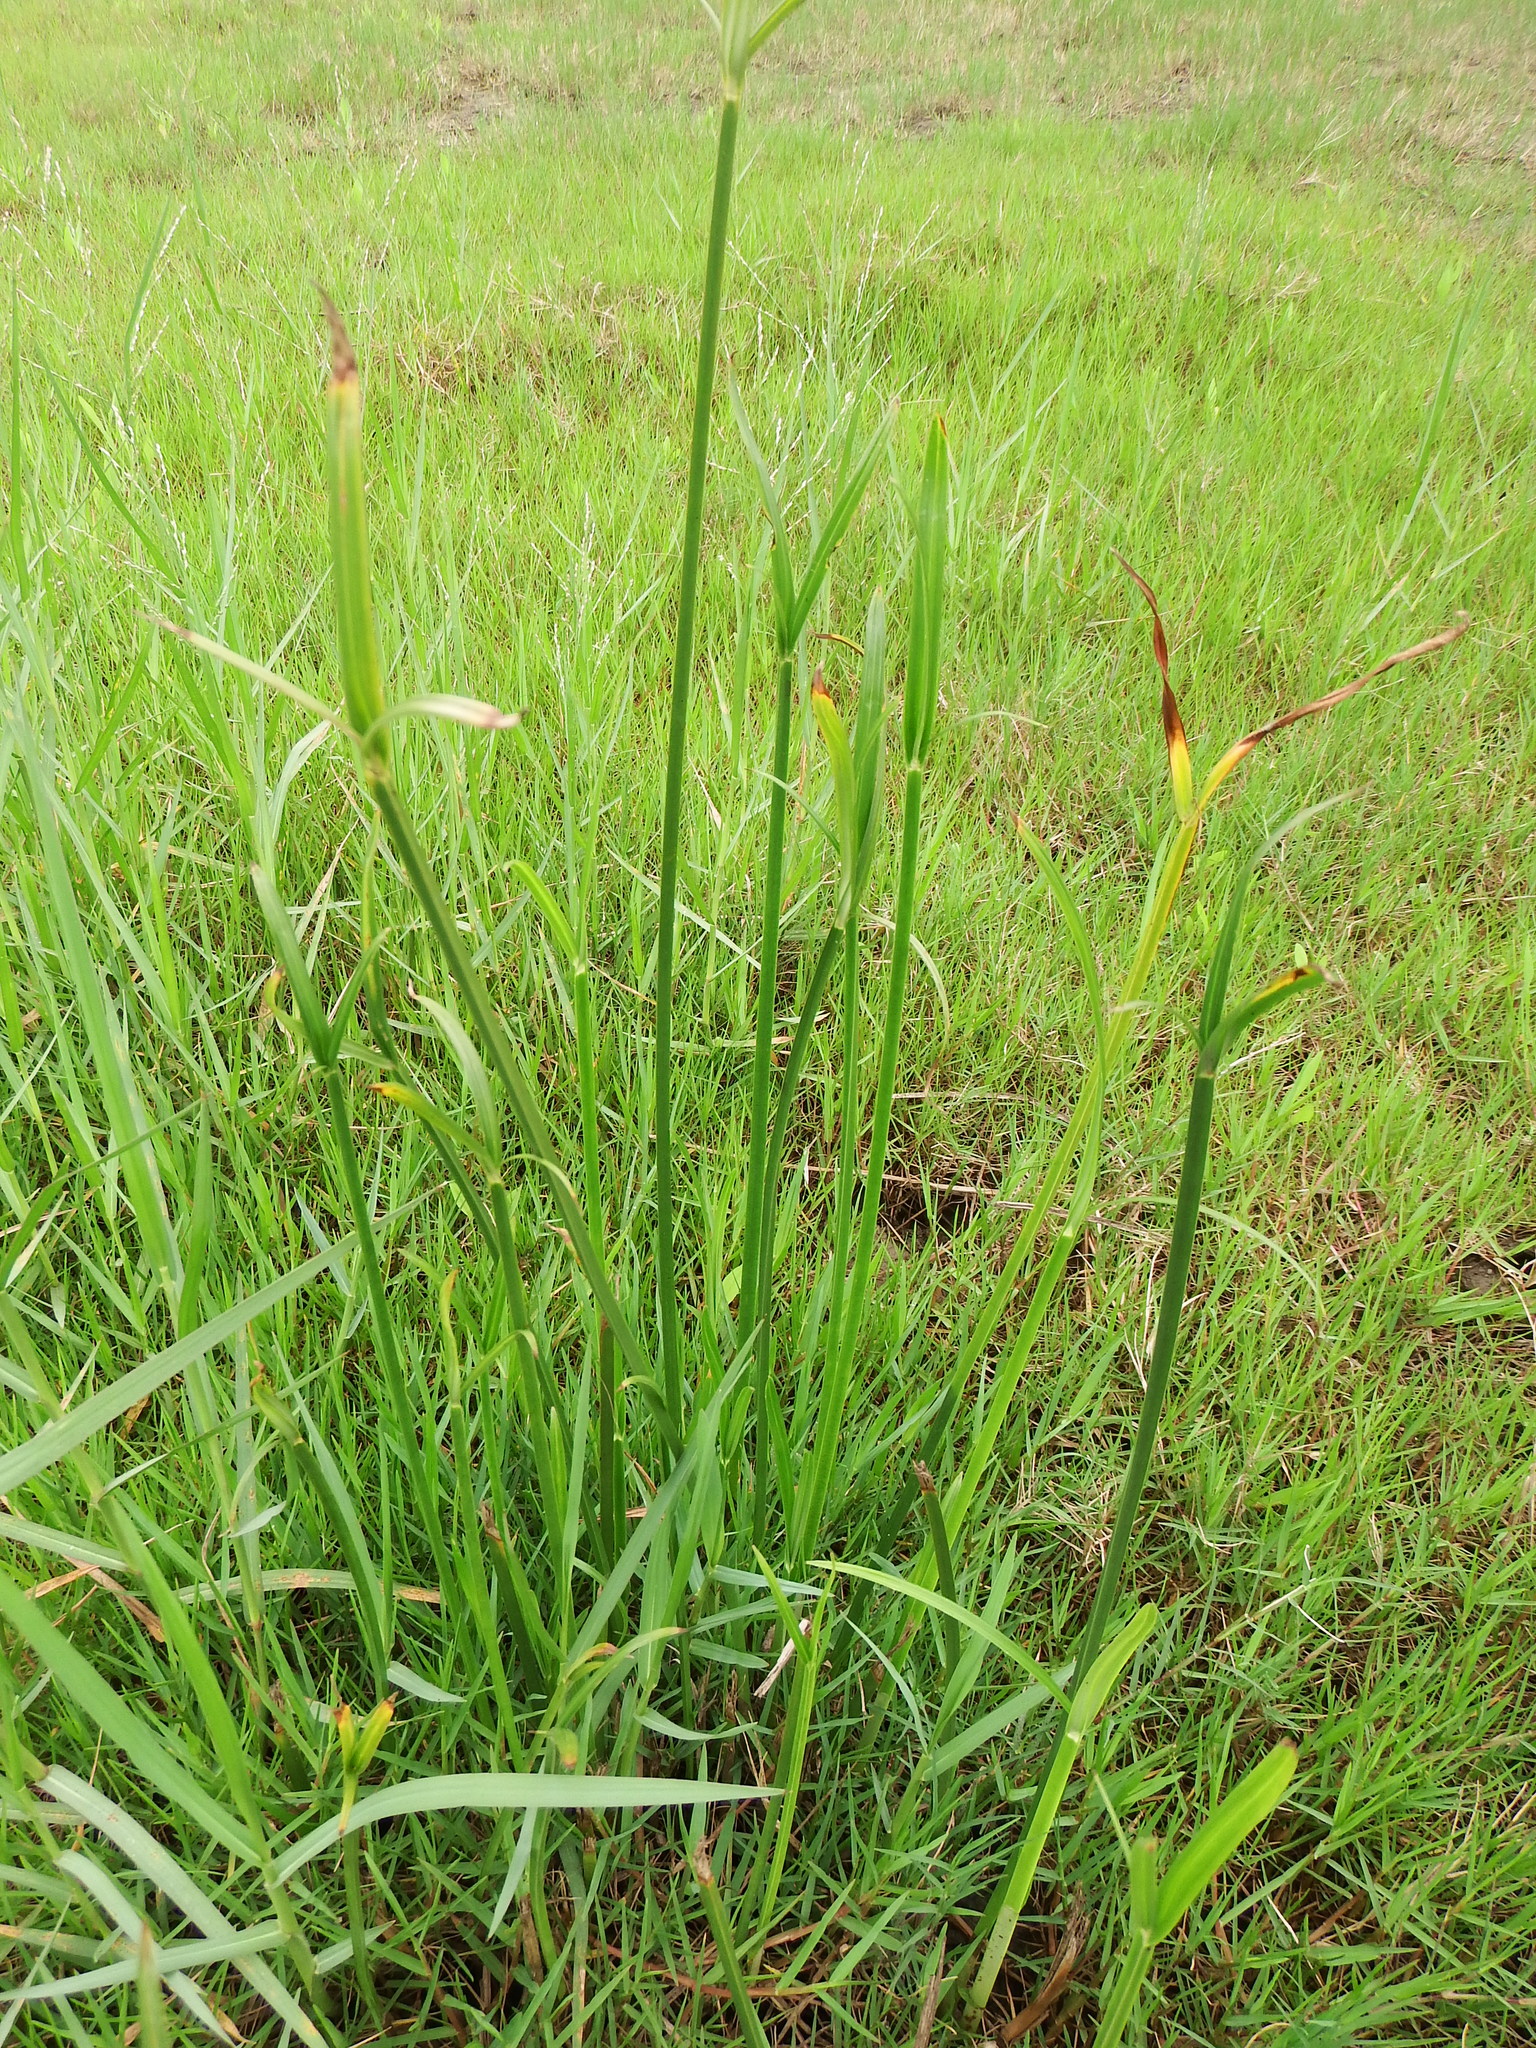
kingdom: Plantae
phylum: Tracheophyta
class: Liliopsida
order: Poales
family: Cyperaceae
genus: Cyperus
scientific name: Cyperus malaccensis
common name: Shichito matgrass
